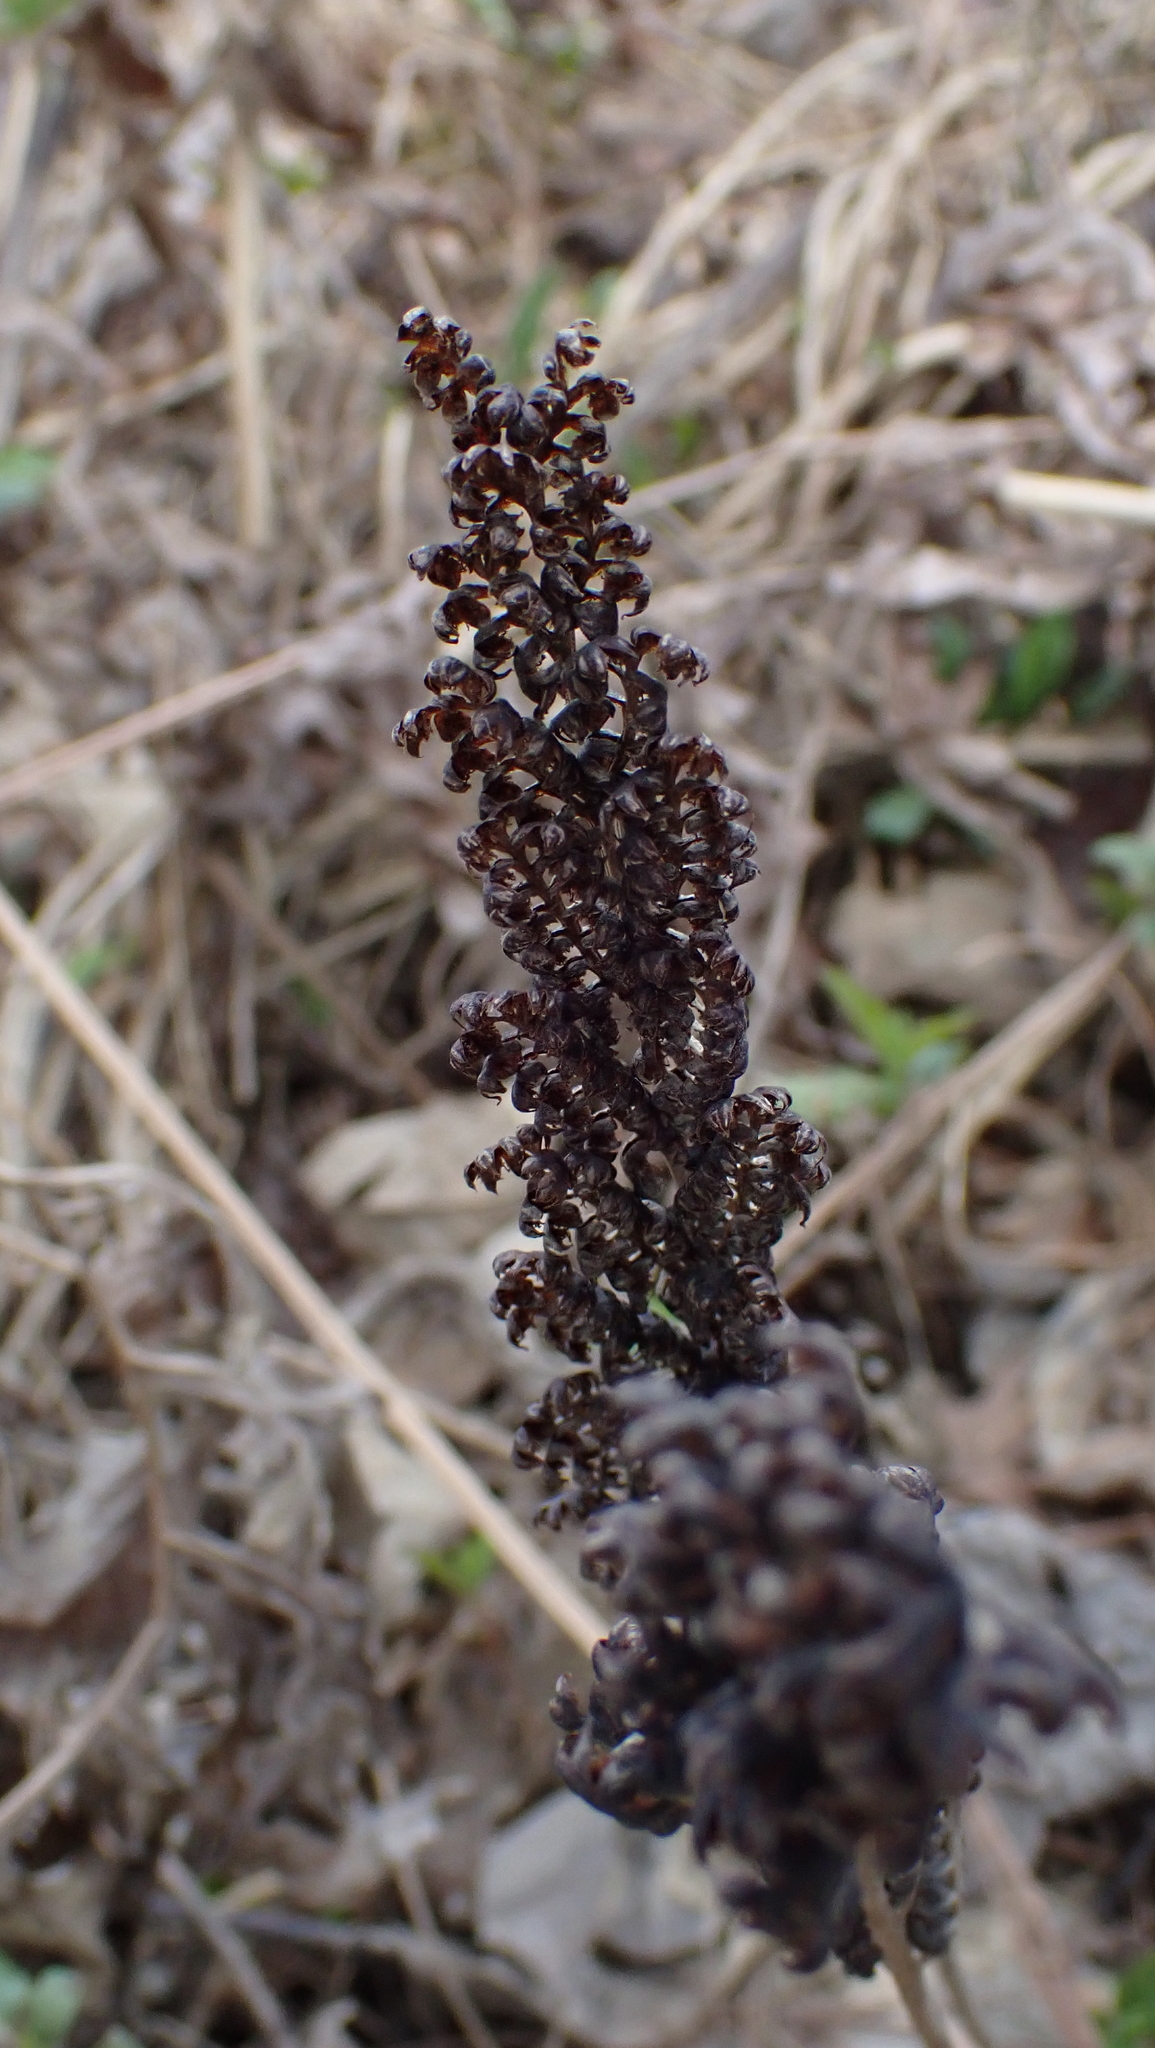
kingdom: Plantae
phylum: Tracheophyta
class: Polypodiopsida
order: Polypodiales
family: Onocleaceae
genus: Onoclea
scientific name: Onoclea sensibilis
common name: Sensitive fern
